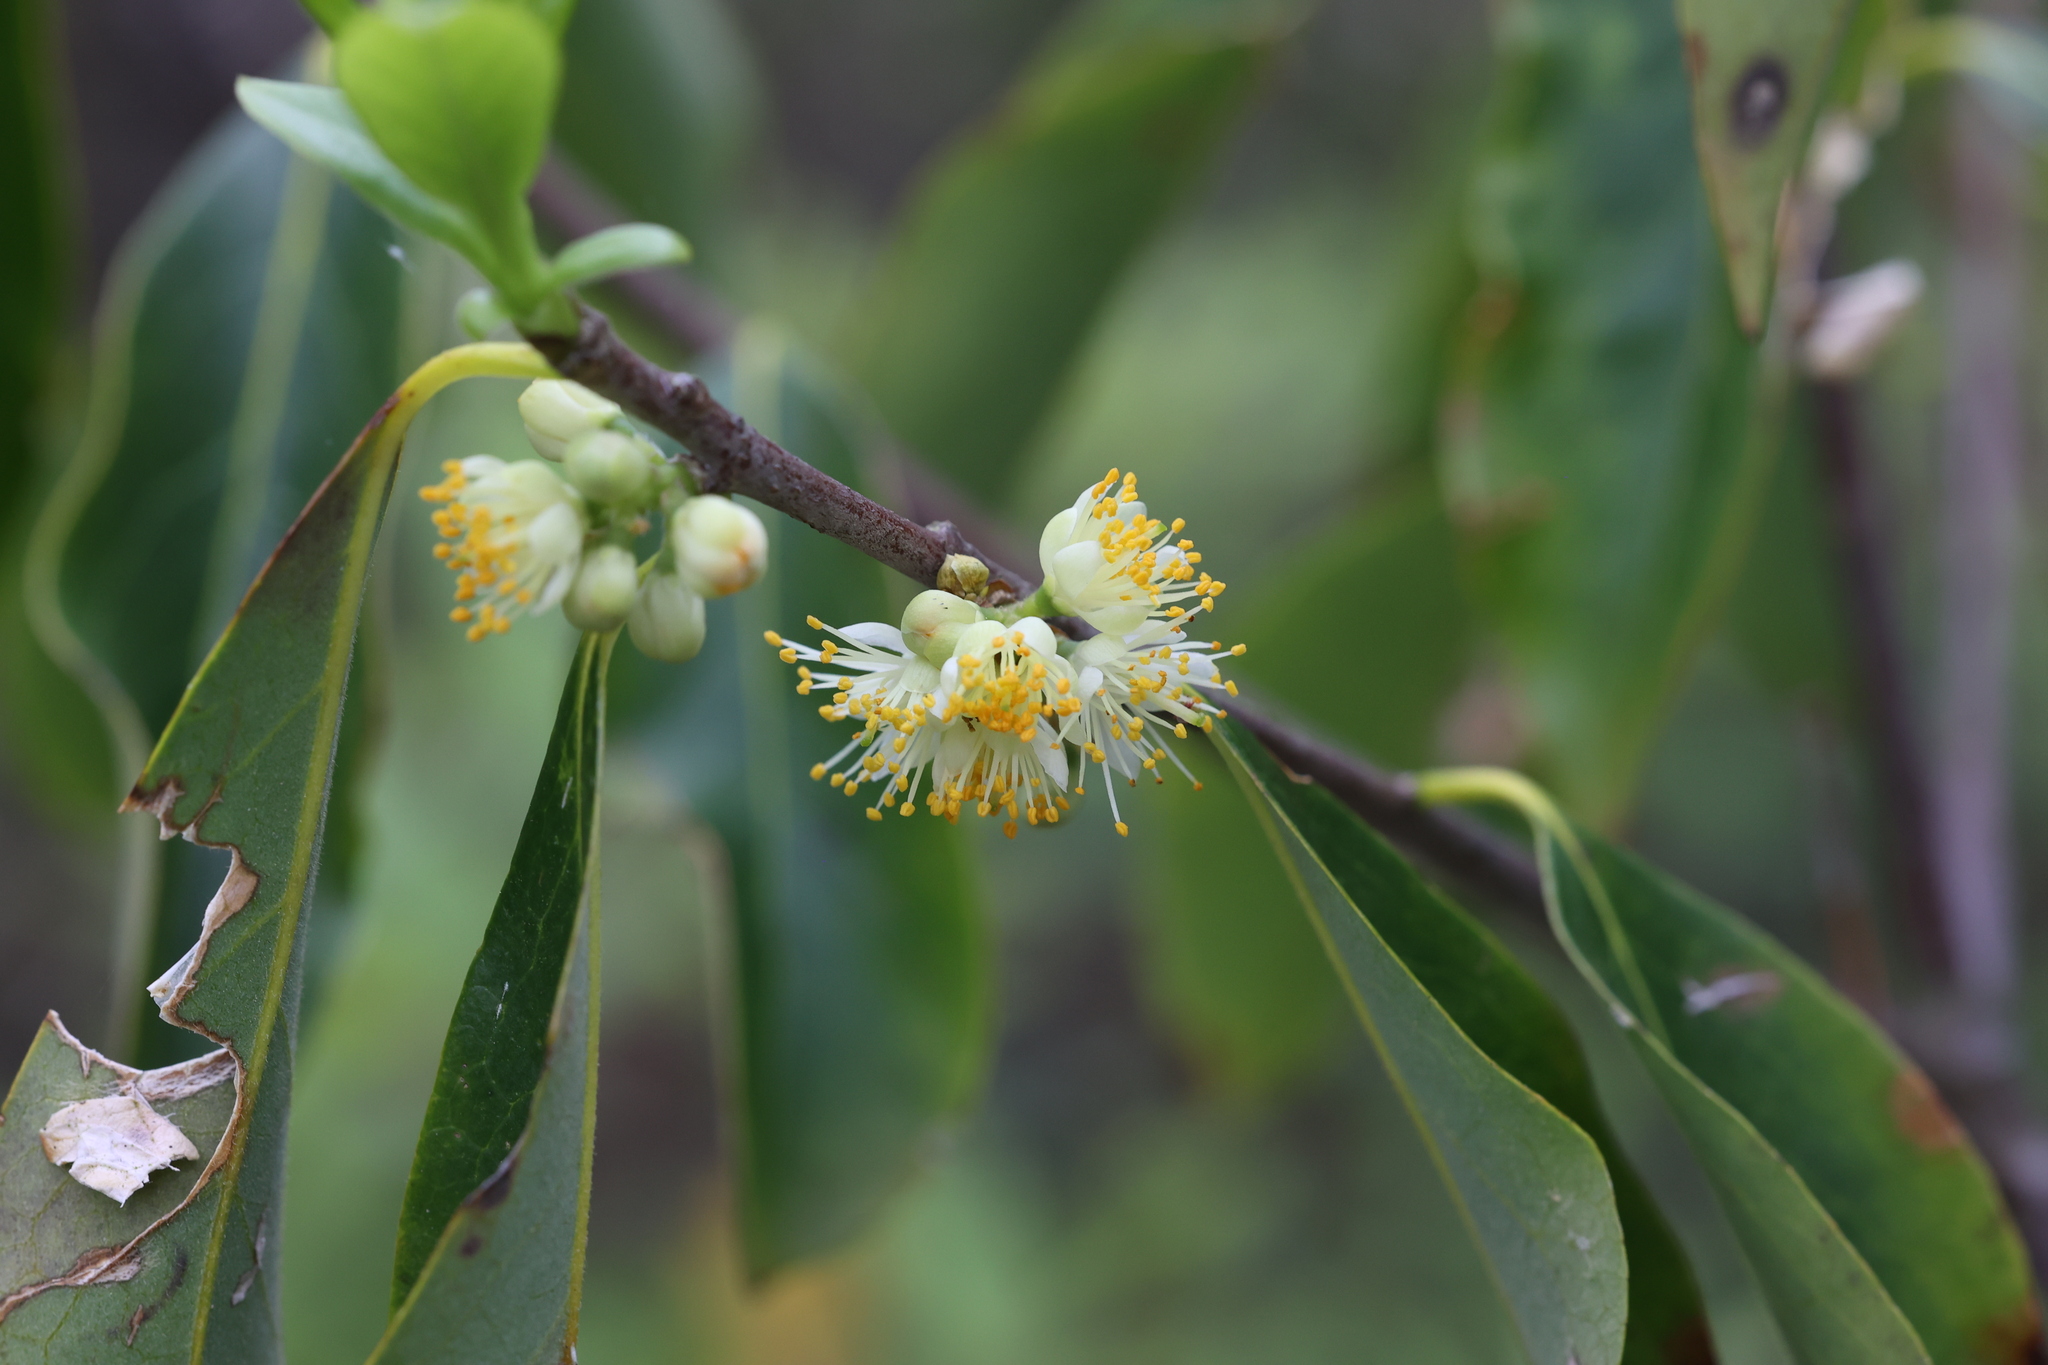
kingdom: Plantae
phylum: Tracheophyta
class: Magnoliopsida
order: Ericales
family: Symplocaceae
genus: Symplocos
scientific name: Symplocos tinctoria
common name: Horse-sugar
